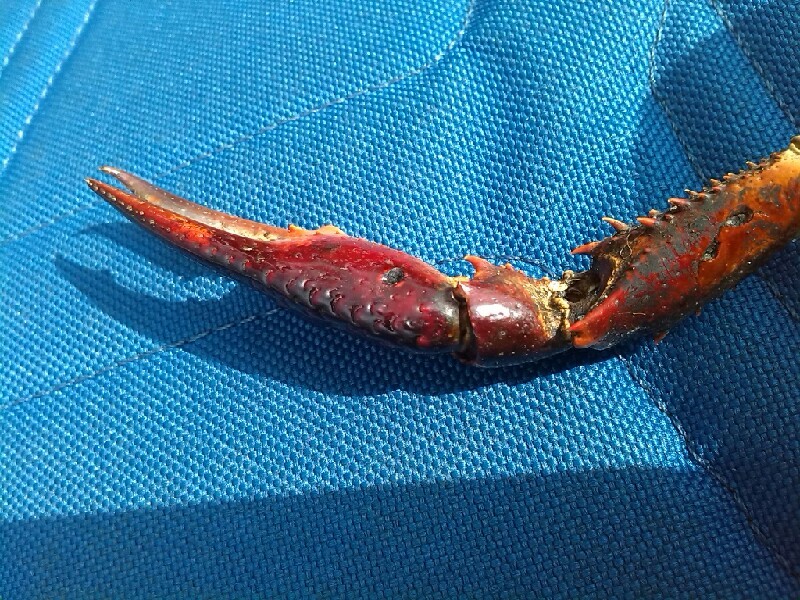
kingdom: Animalia
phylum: Arthropoda
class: Malacostraca
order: Decapoda
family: Cambaridae
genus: Procambarus
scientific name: Procambarus clarkii
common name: Red swamp crayfish
